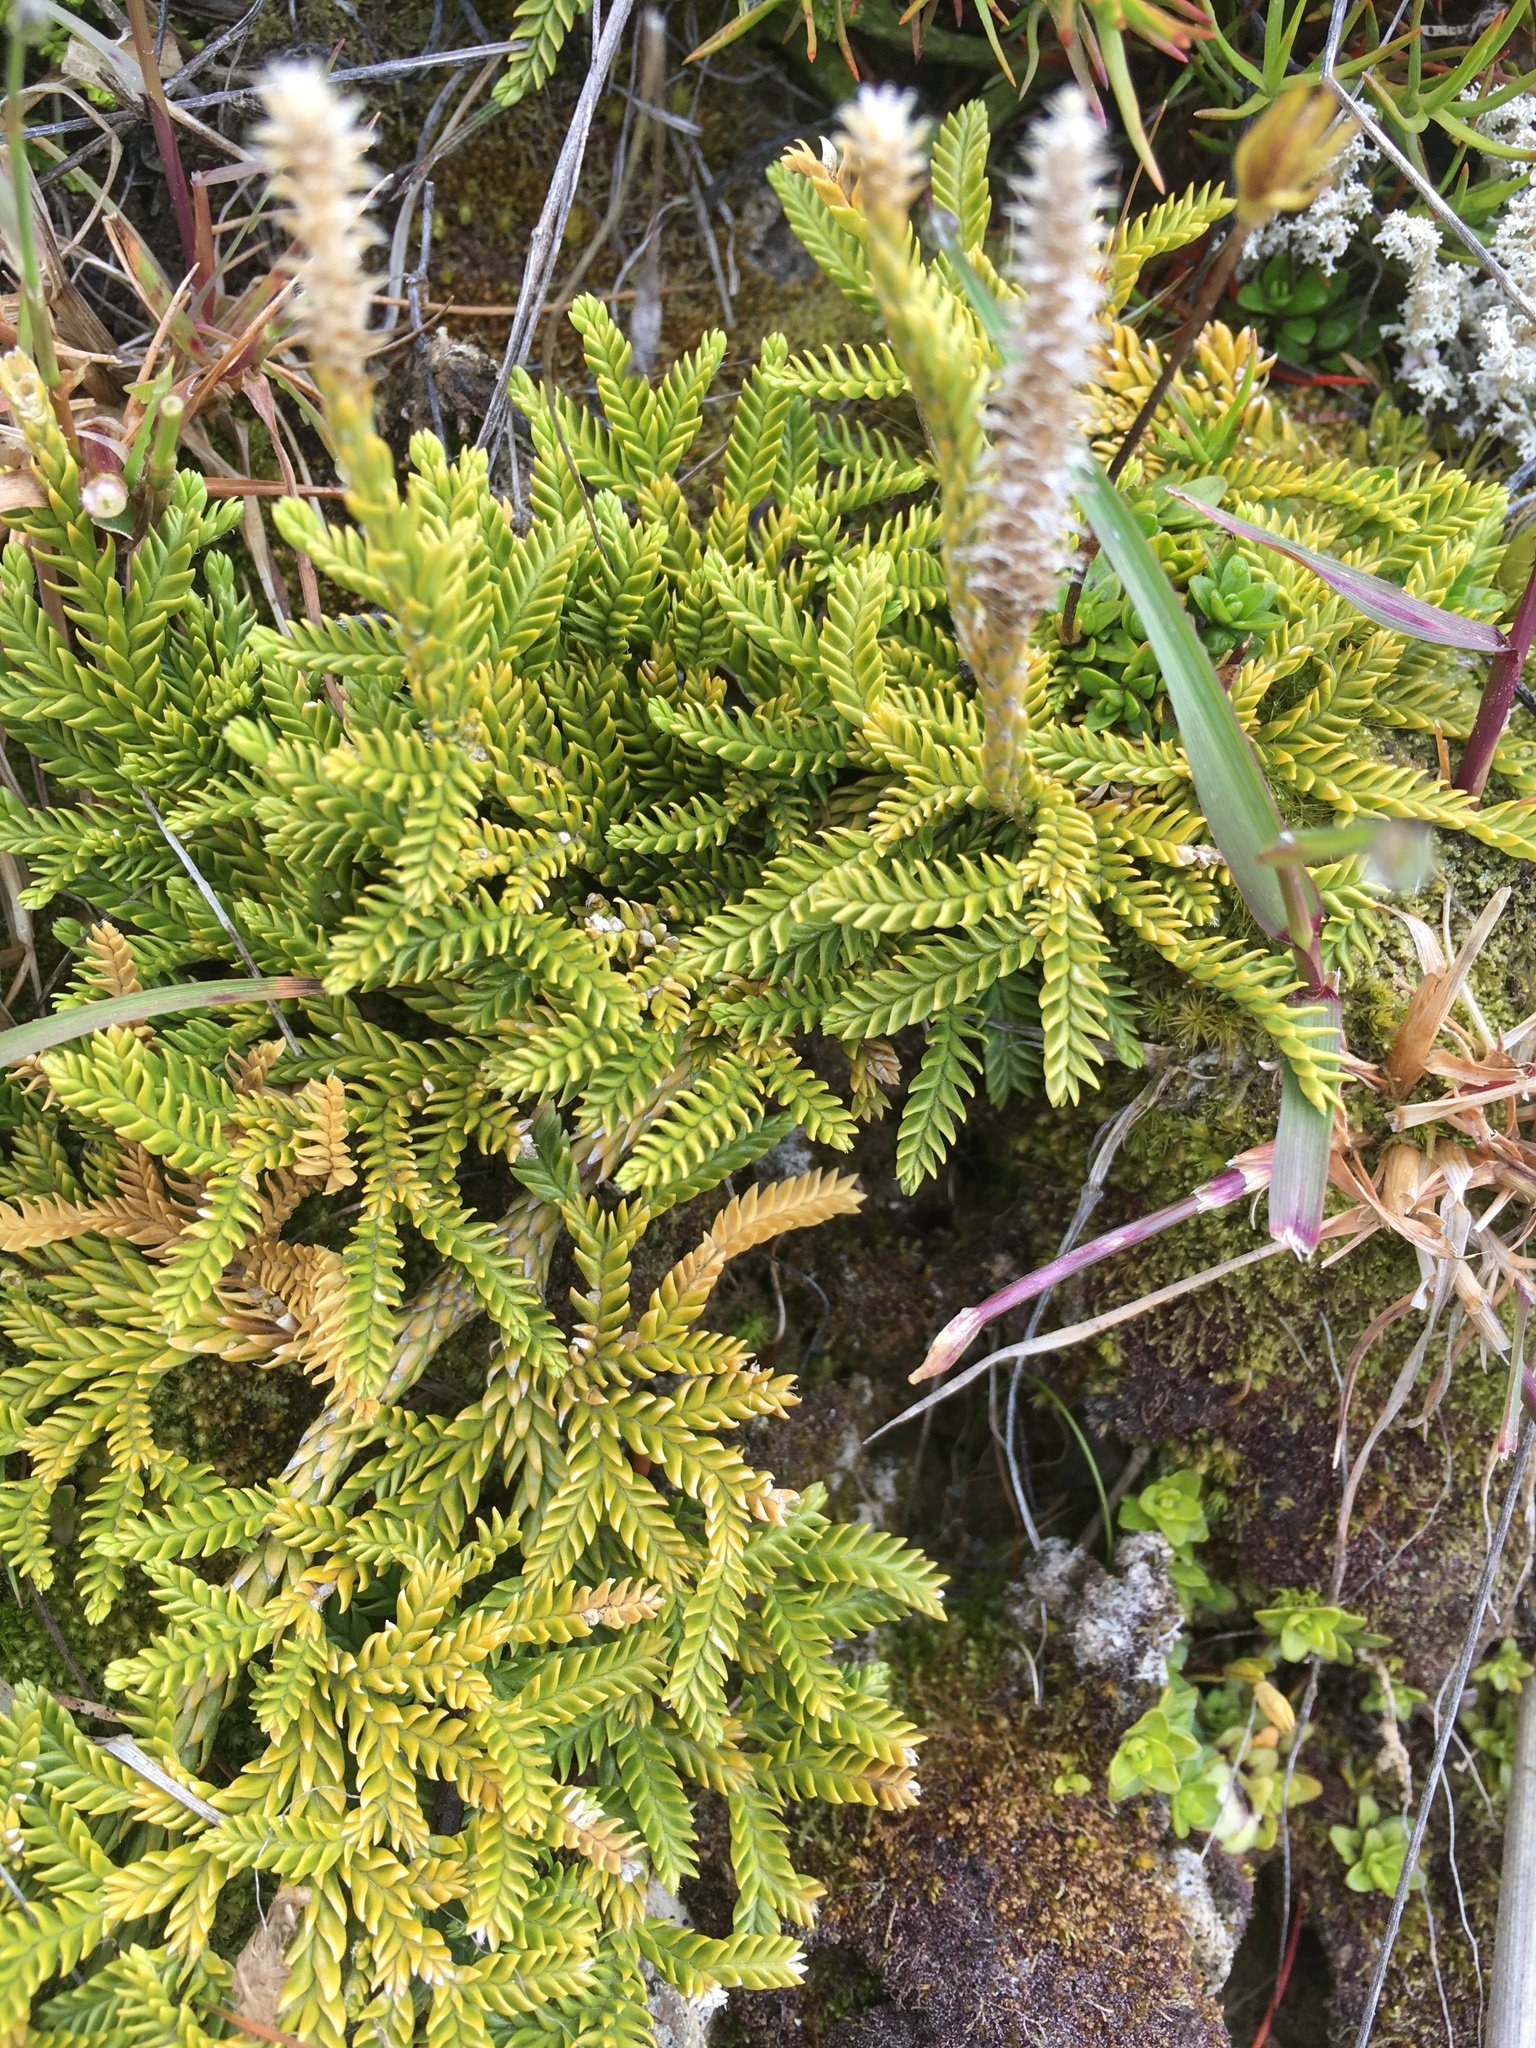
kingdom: Plantae
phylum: Tracheophyta
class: Lycopodiopsida
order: Lycopodiales
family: Lycopodiaceae
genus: Diphasium
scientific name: Diphasium scariosum
